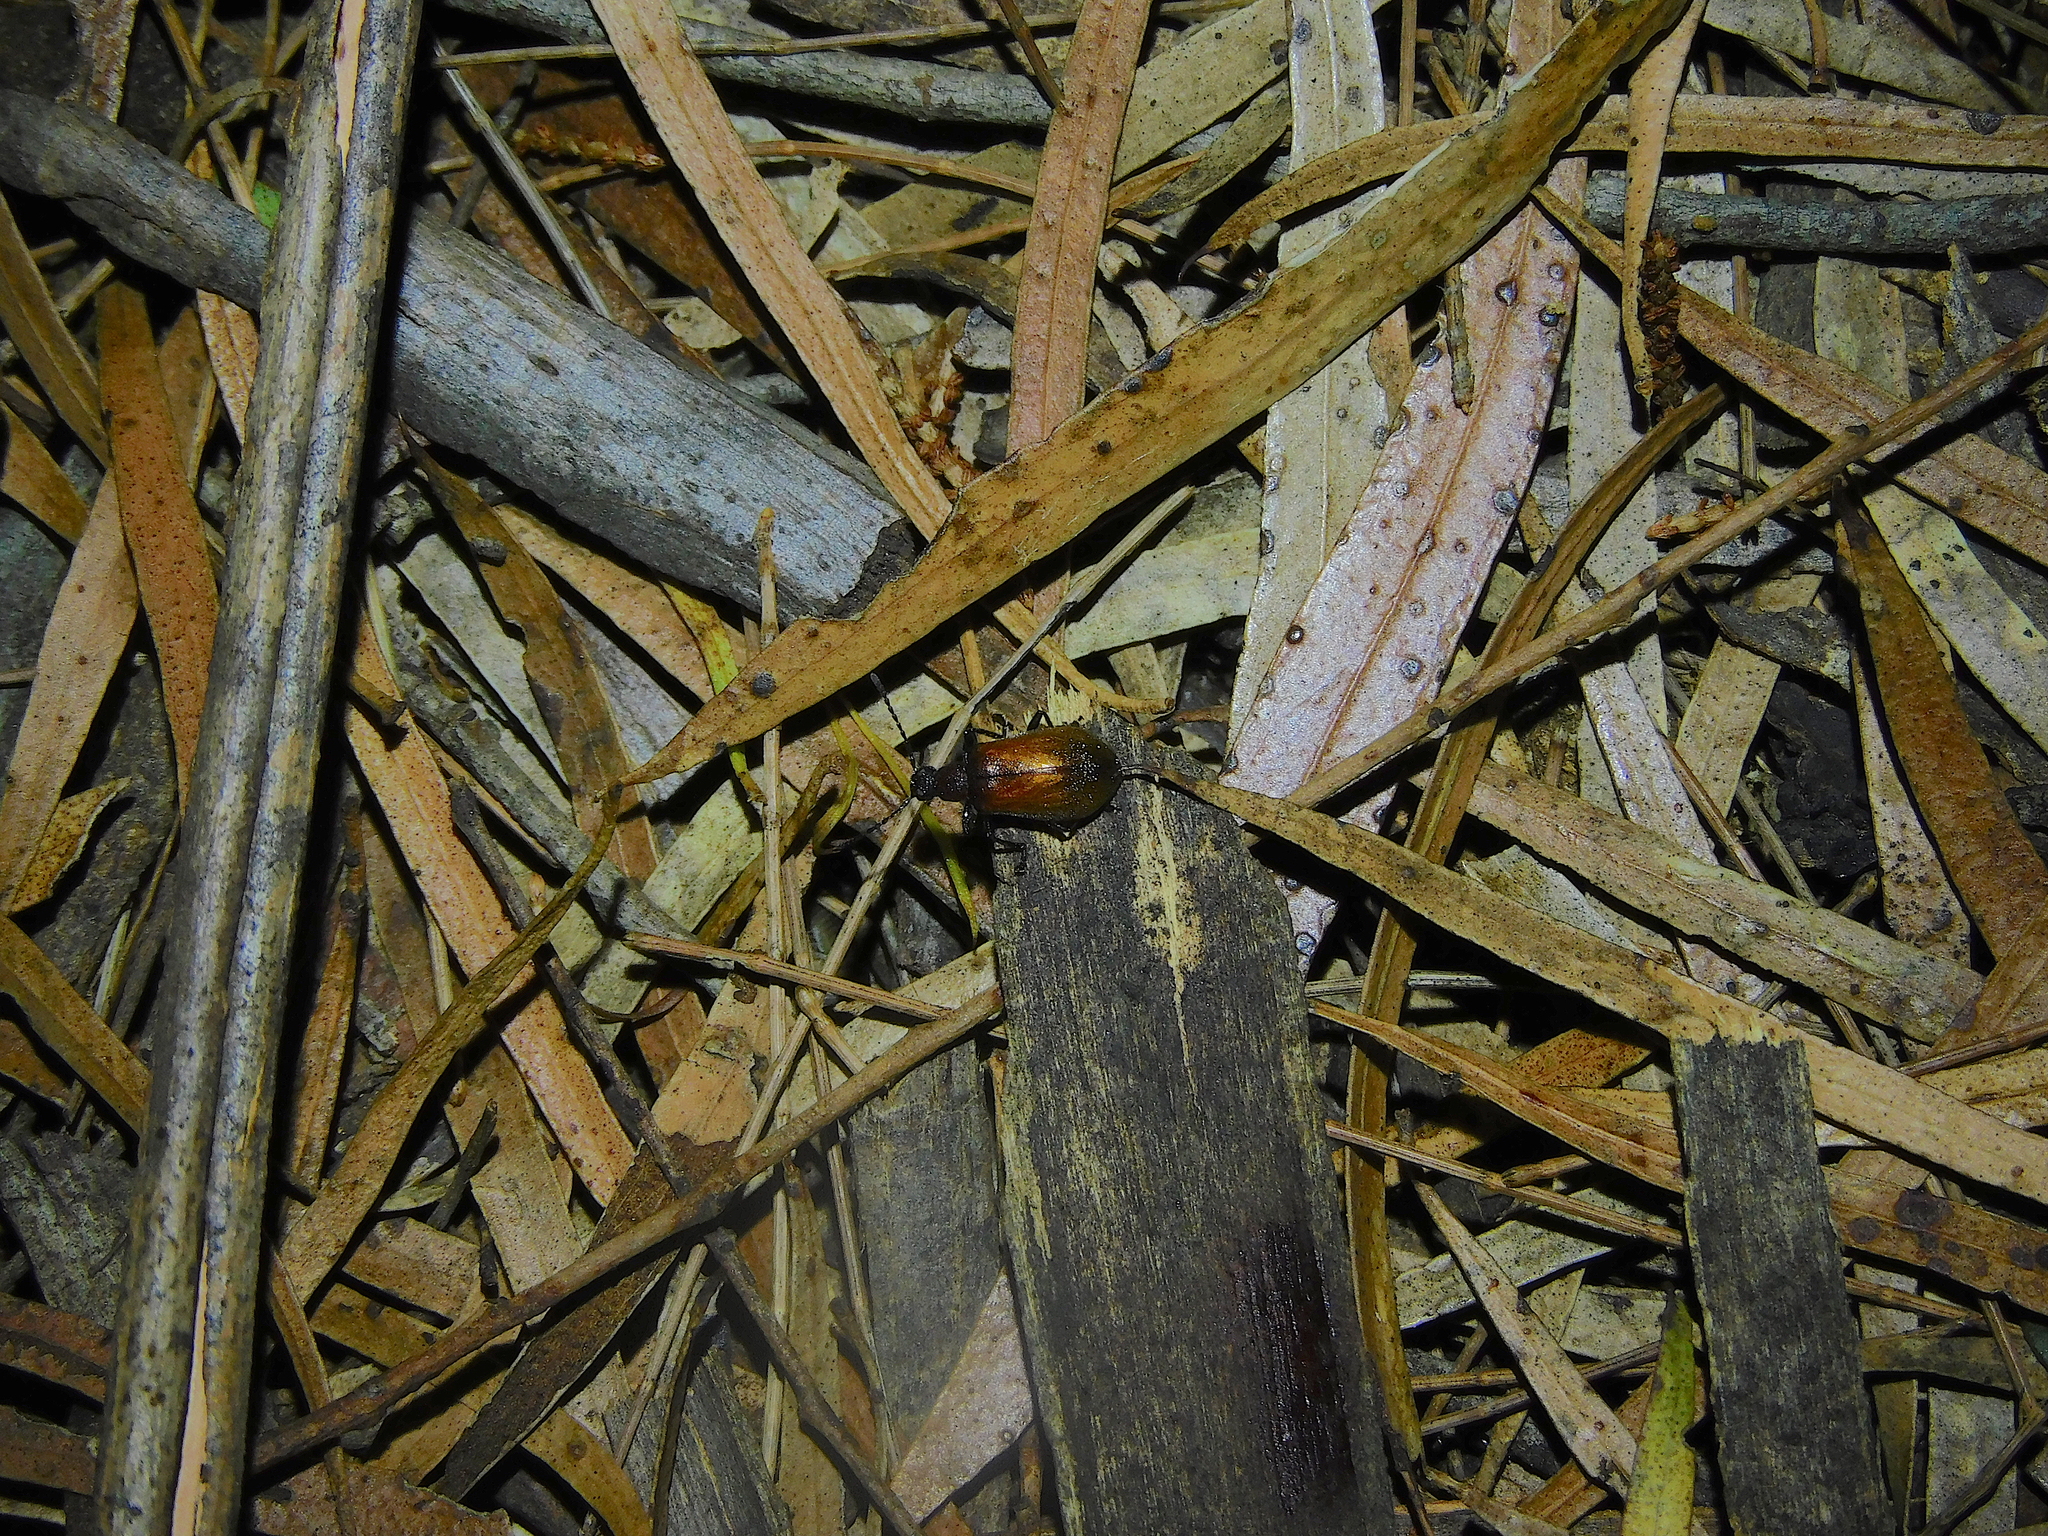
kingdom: Animalia
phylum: Arthropoda
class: Insecta
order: Coleoptera
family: Tenebrionidae
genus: Ecnolagria
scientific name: Ecnolagria
